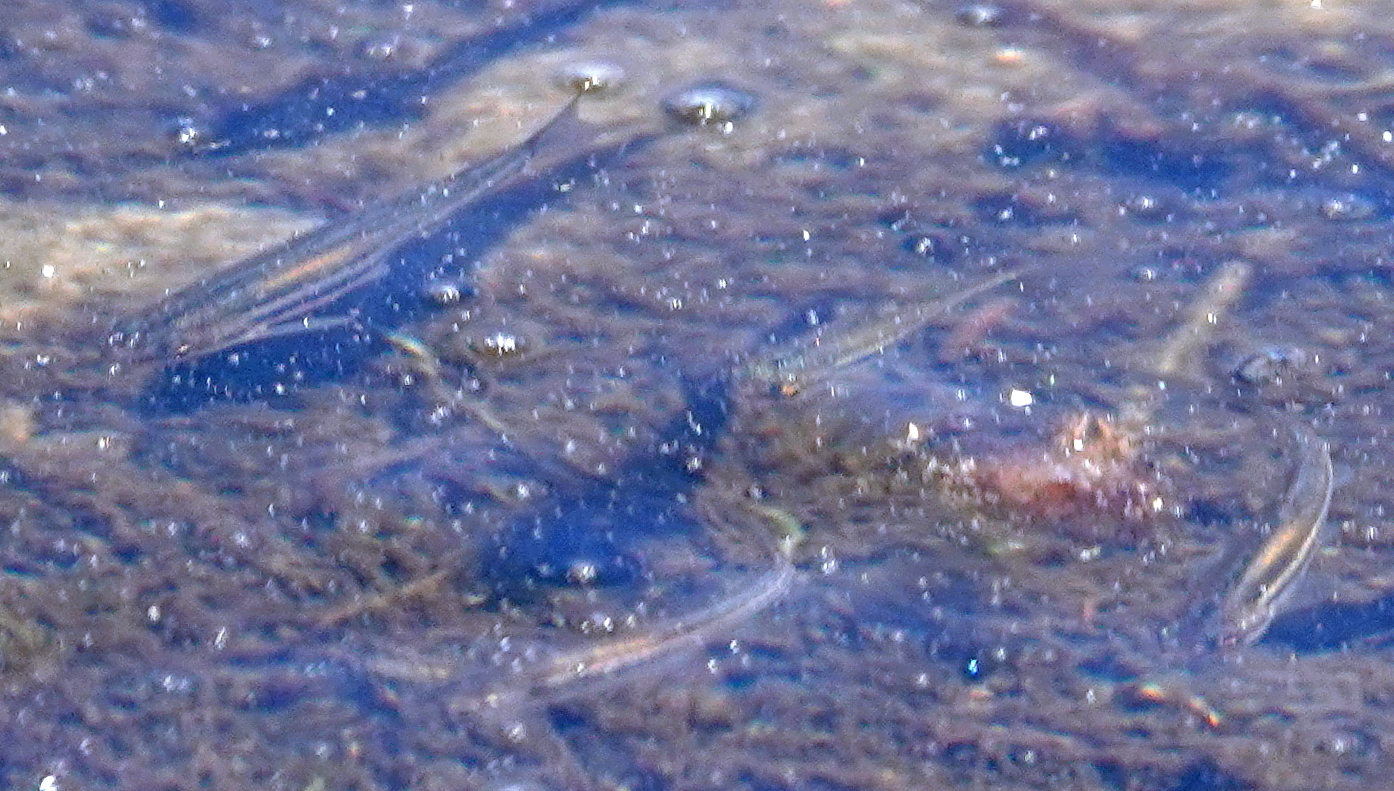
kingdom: Animalia
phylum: Chordata
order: Cypriniformes
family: Cyprinidae
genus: Chrosomus
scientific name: Chrosomus eos
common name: Northern redbelly dace
